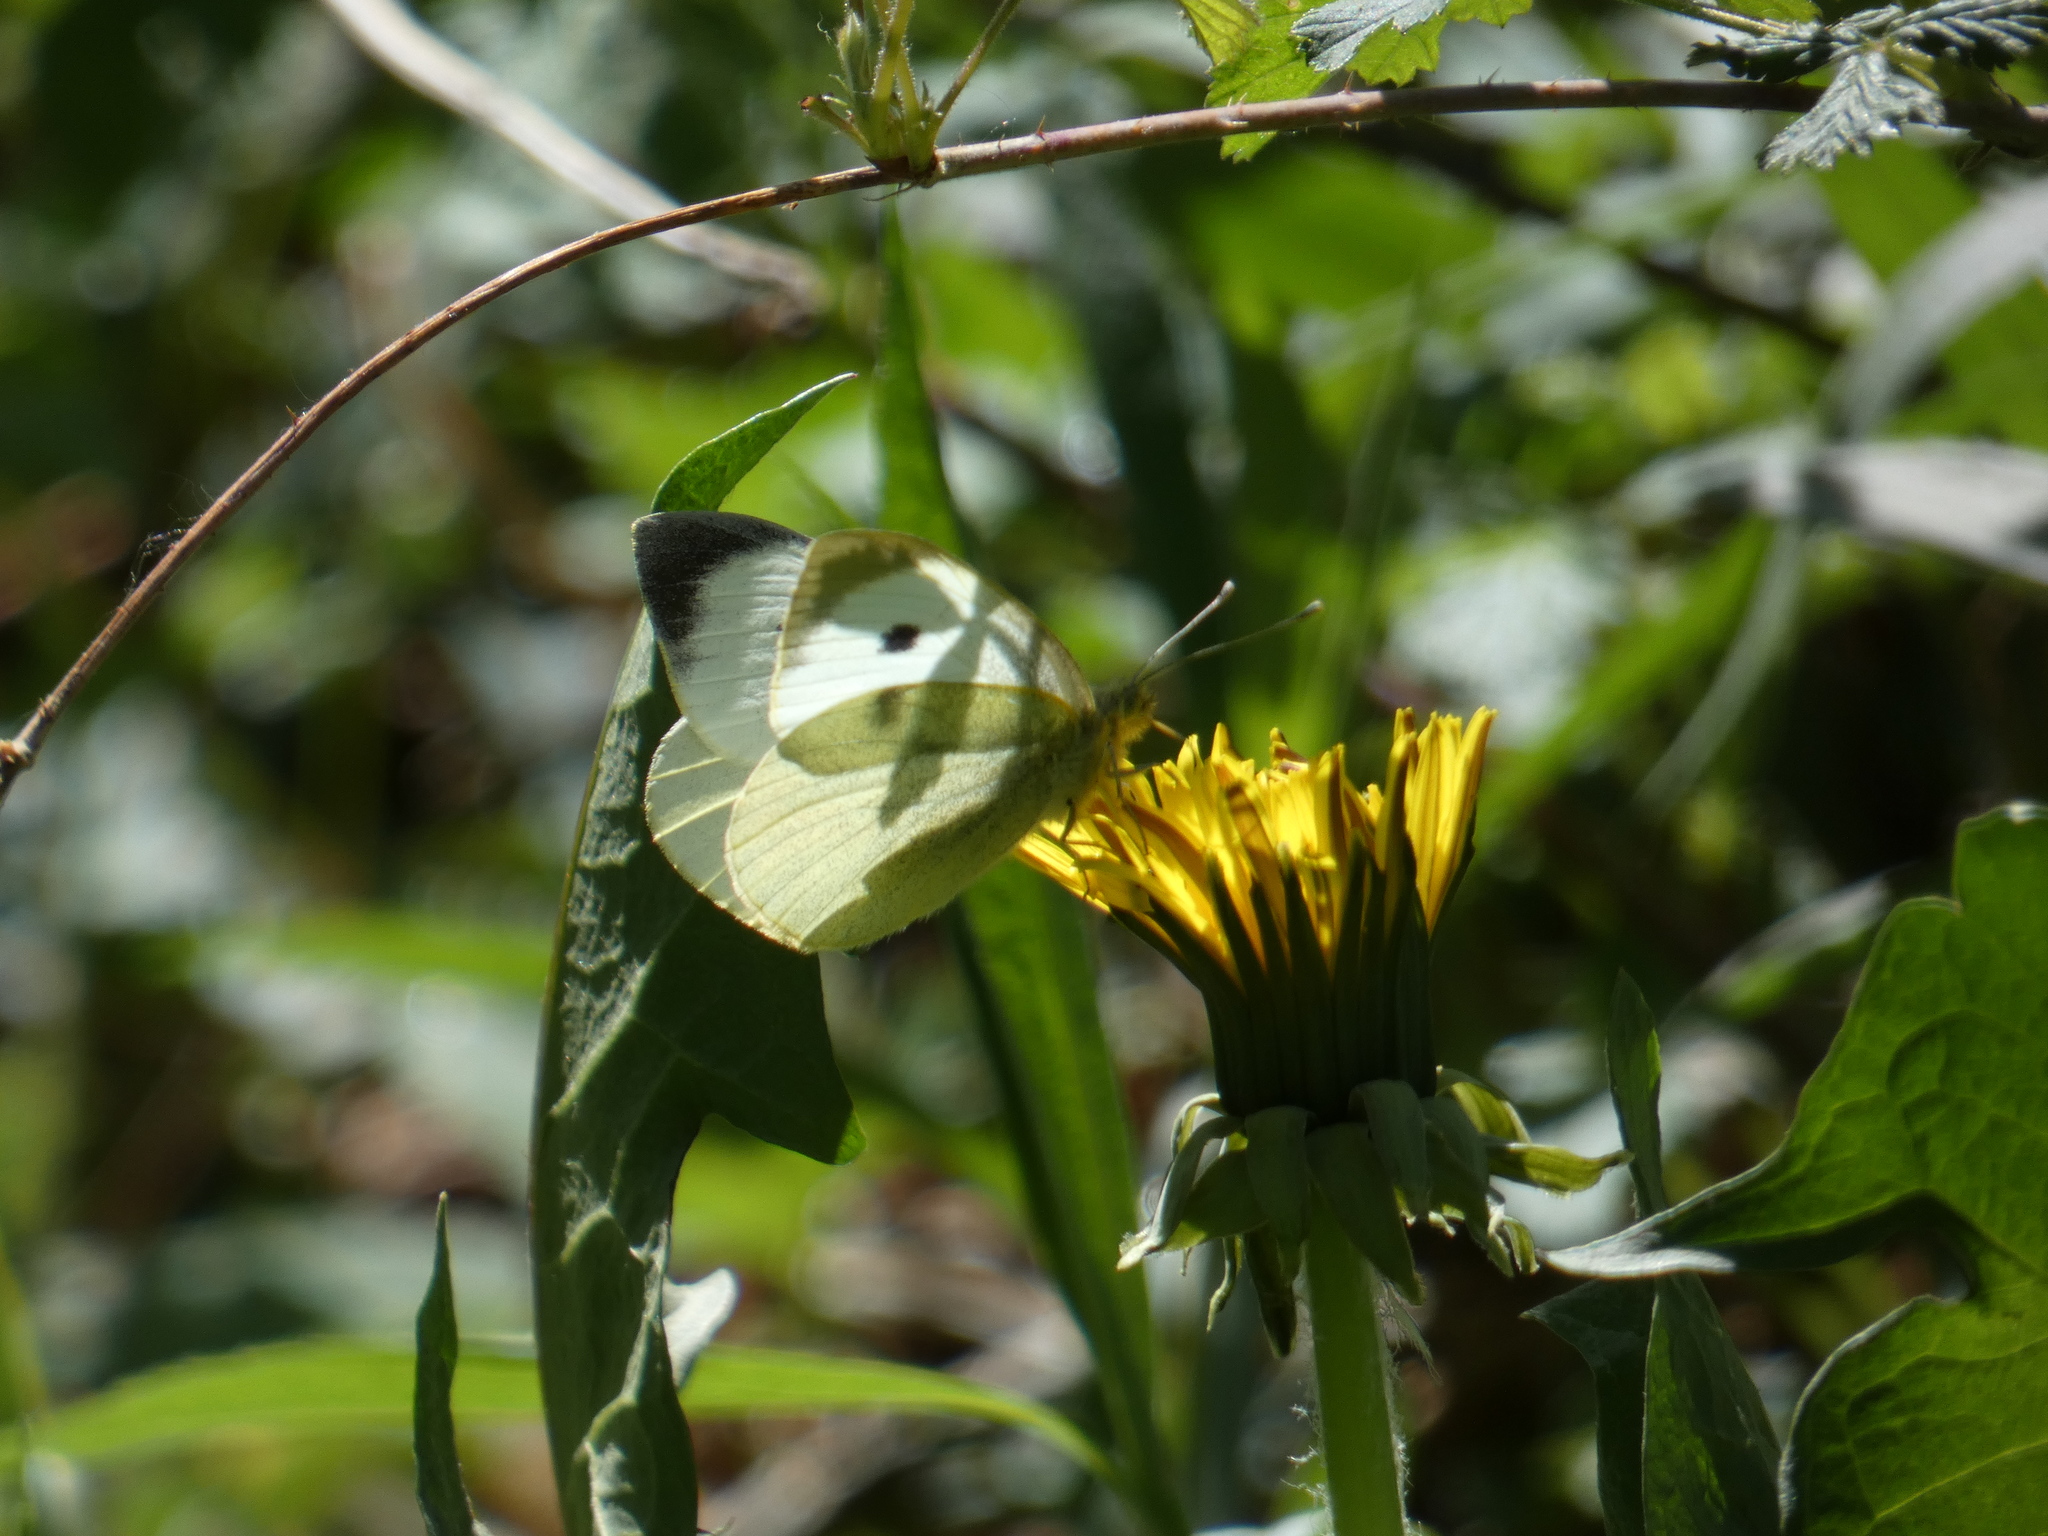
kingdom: Animalia
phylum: Arthropoda
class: Insecta
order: Lepidoptera
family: Pieridae
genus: Pieris
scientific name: Pieris brassicae
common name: Large white
